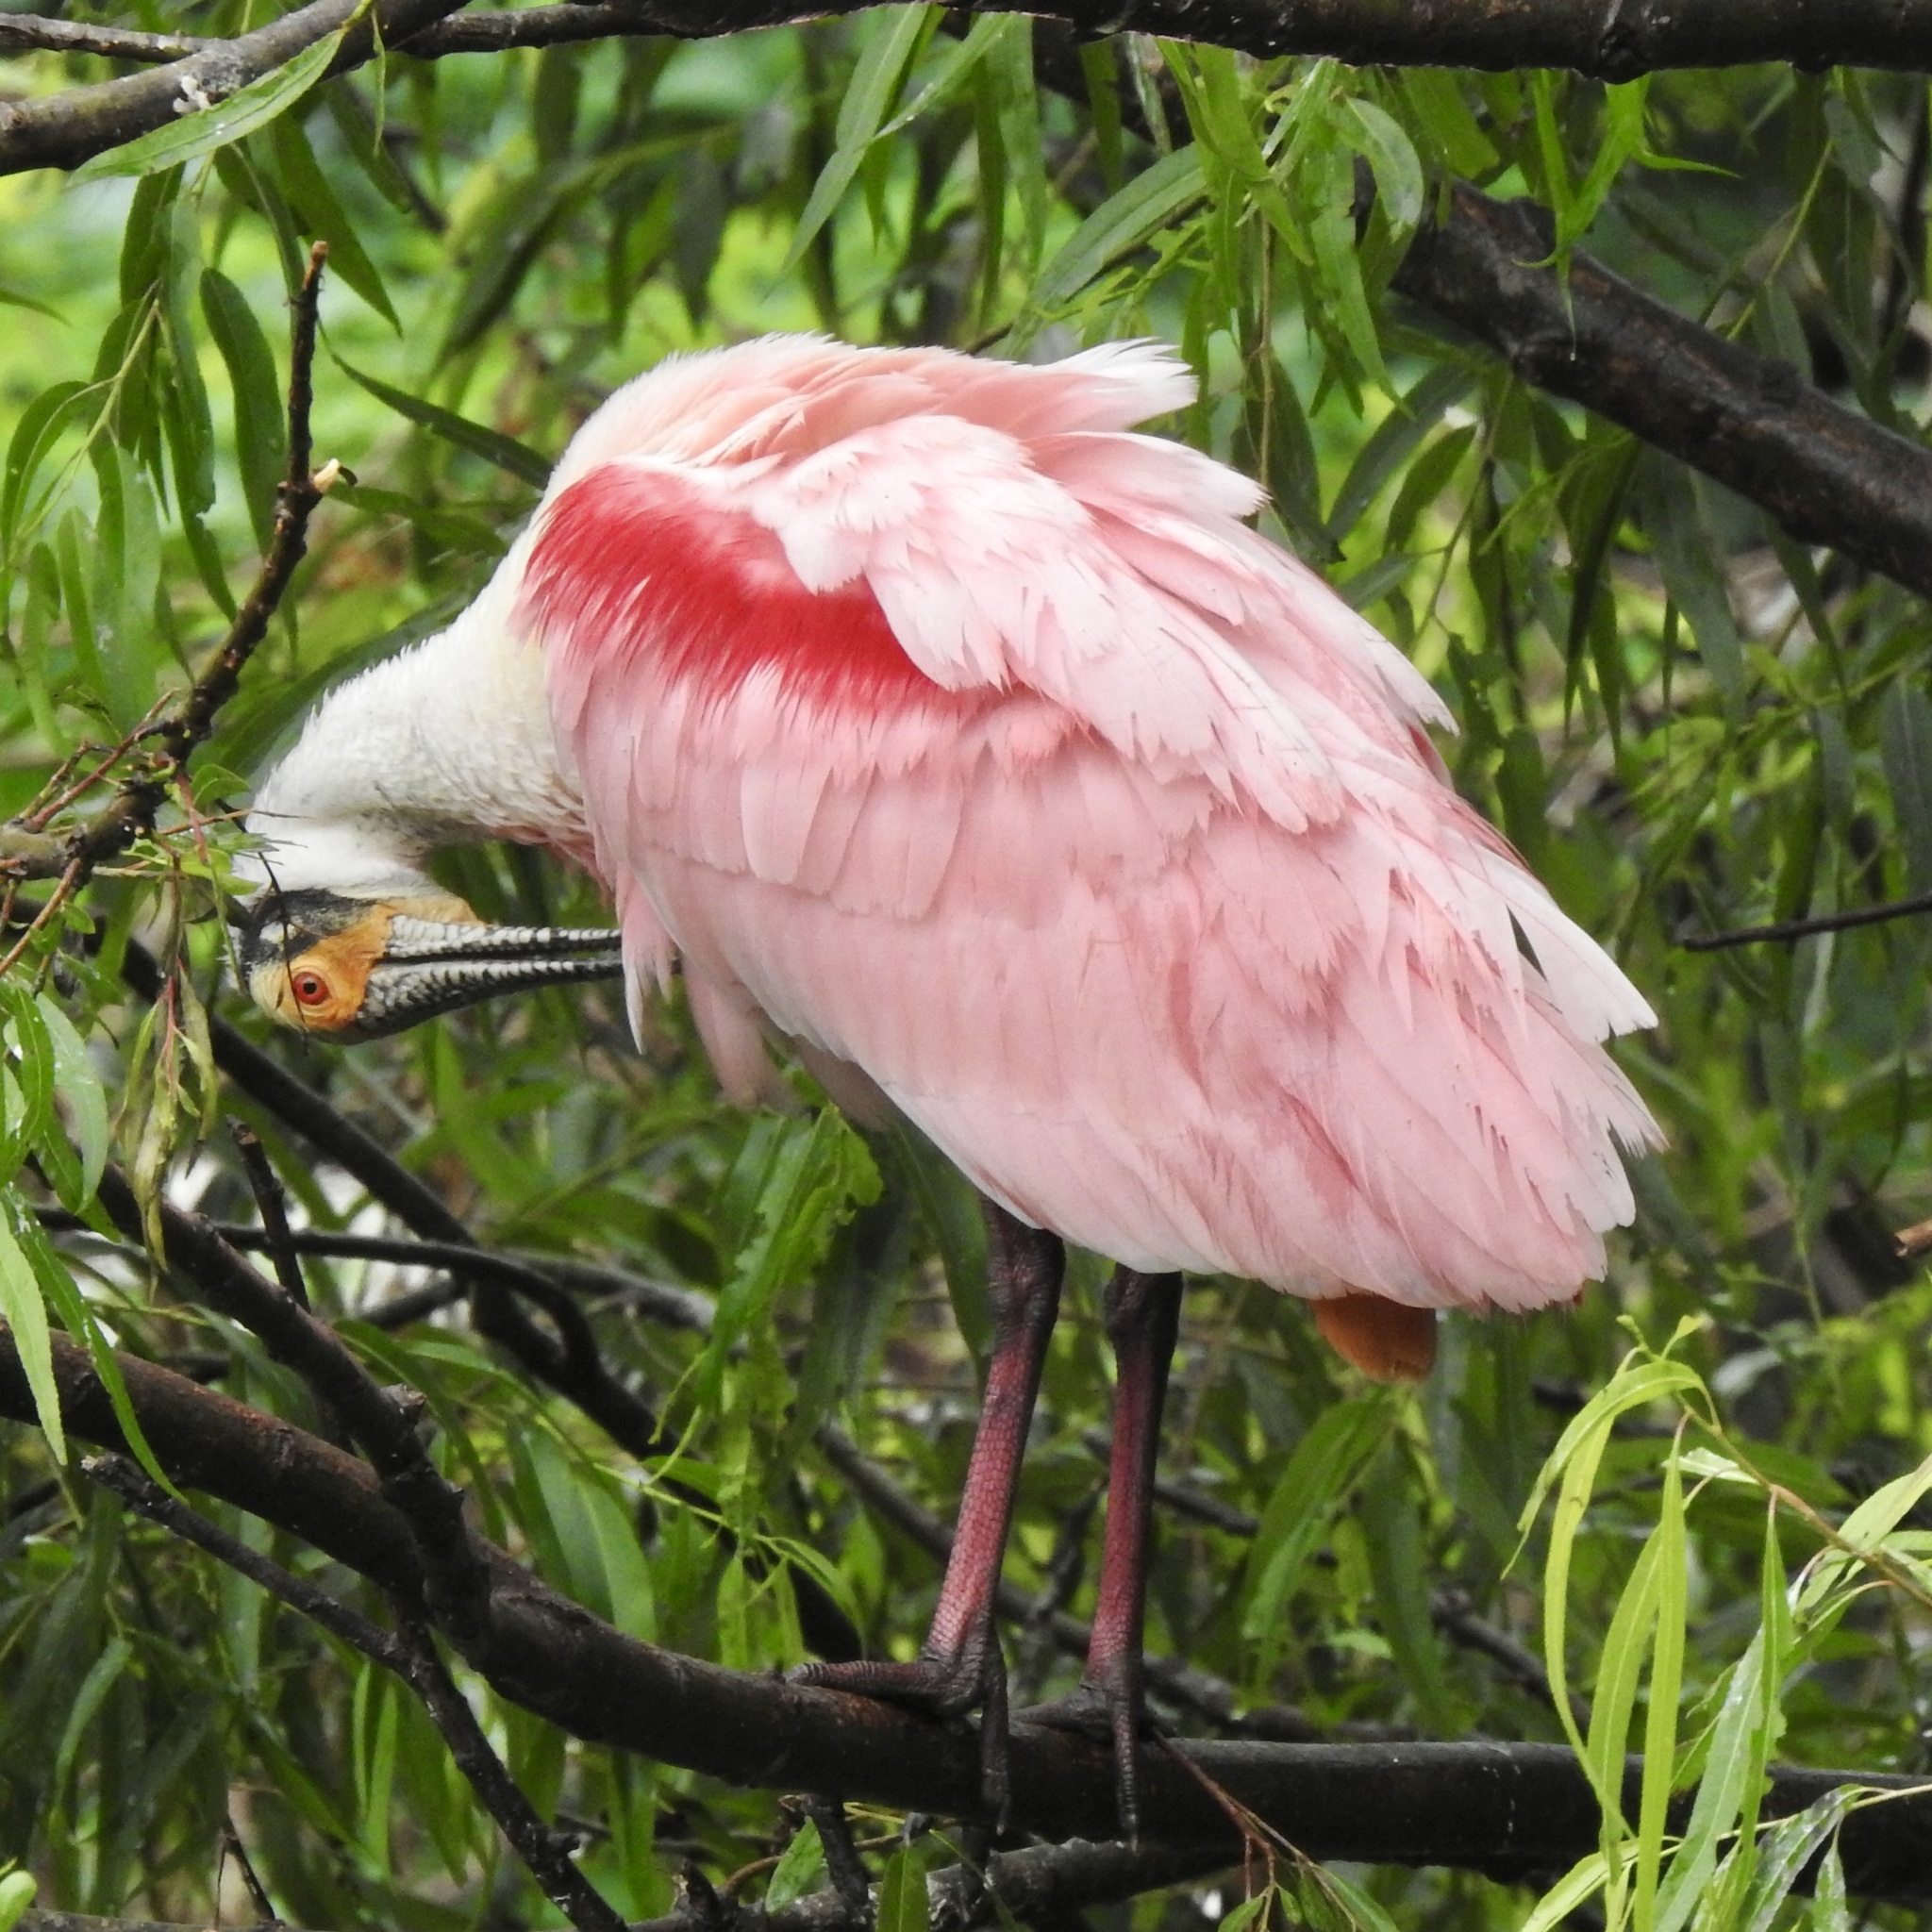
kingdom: Animalia
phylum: Chordata
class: Aves
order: Pelecaniformes
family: Threskiornithidae
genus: Platalea
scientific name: Platalea ajaja
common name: Roseate spoonbill
